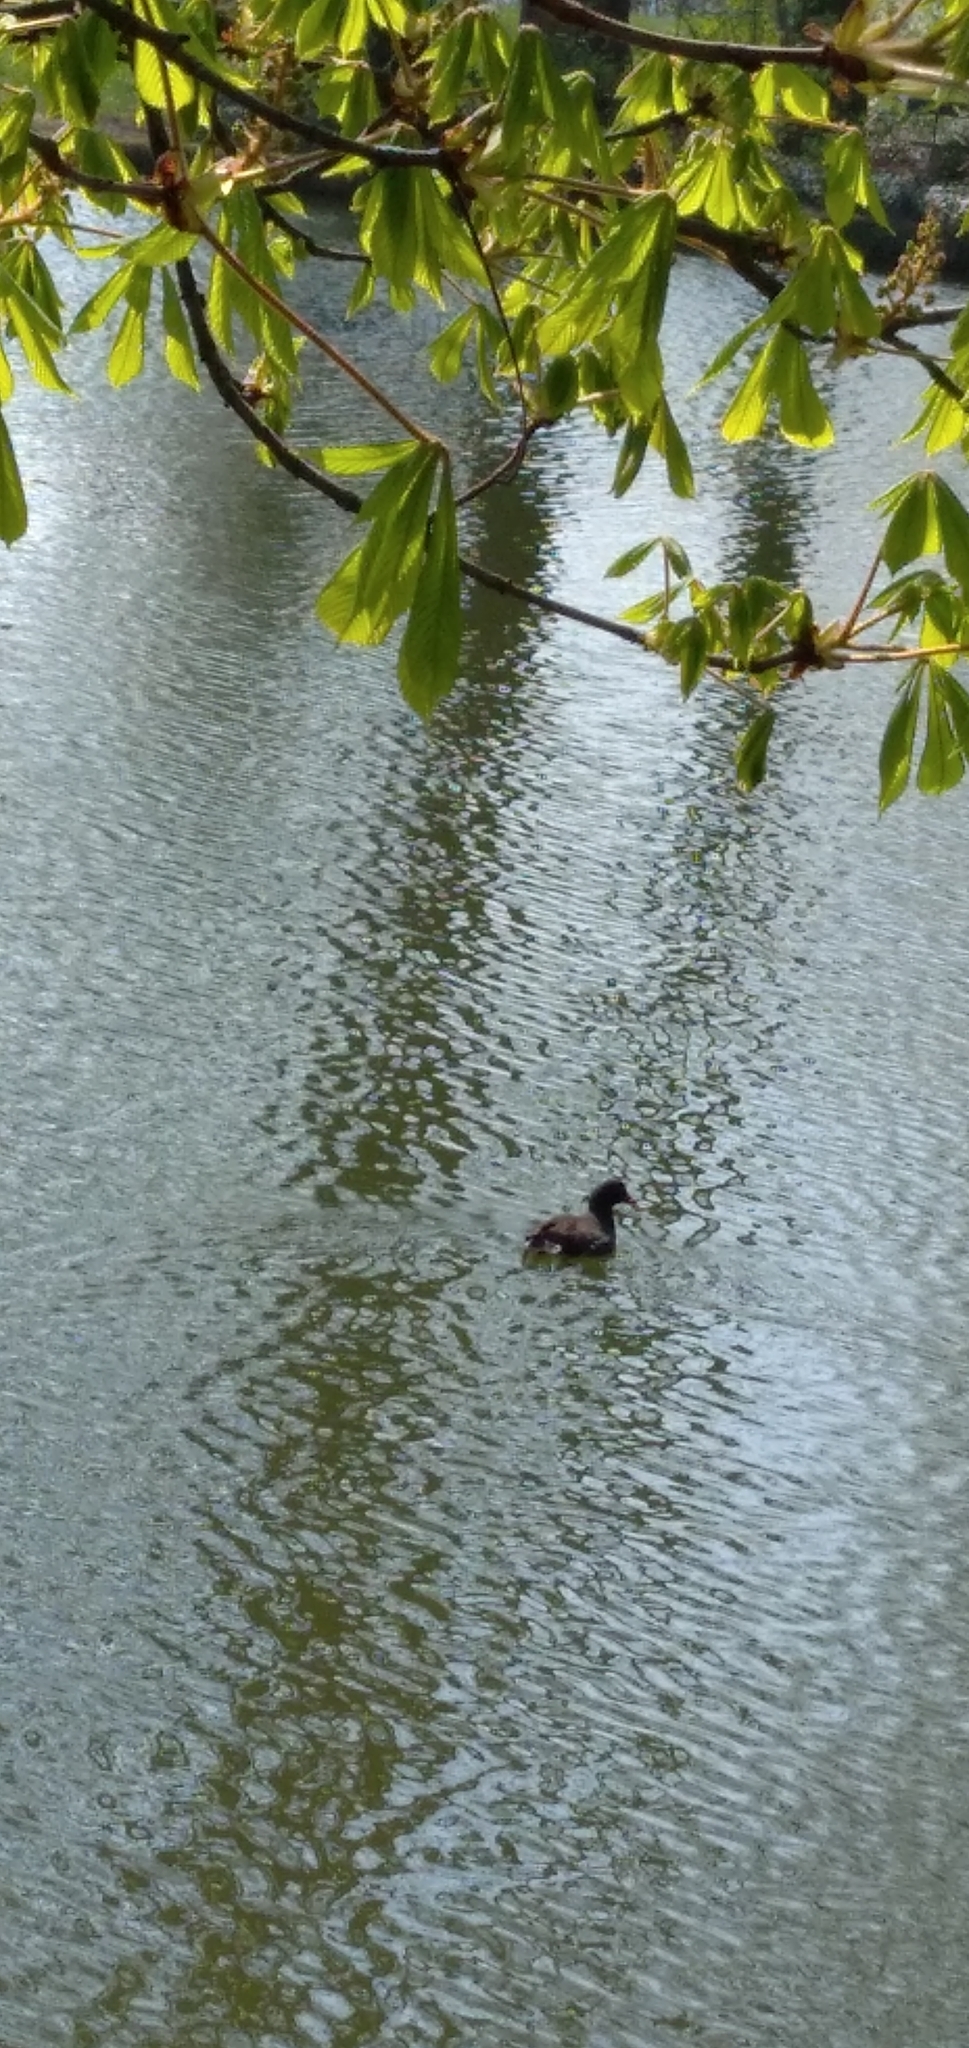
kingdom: Animalia
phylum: Chordata
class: Aves
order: Gruiformes
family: Rallidae
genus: Gallinula
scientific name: Gallinula chloropus
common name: Common moorhen
